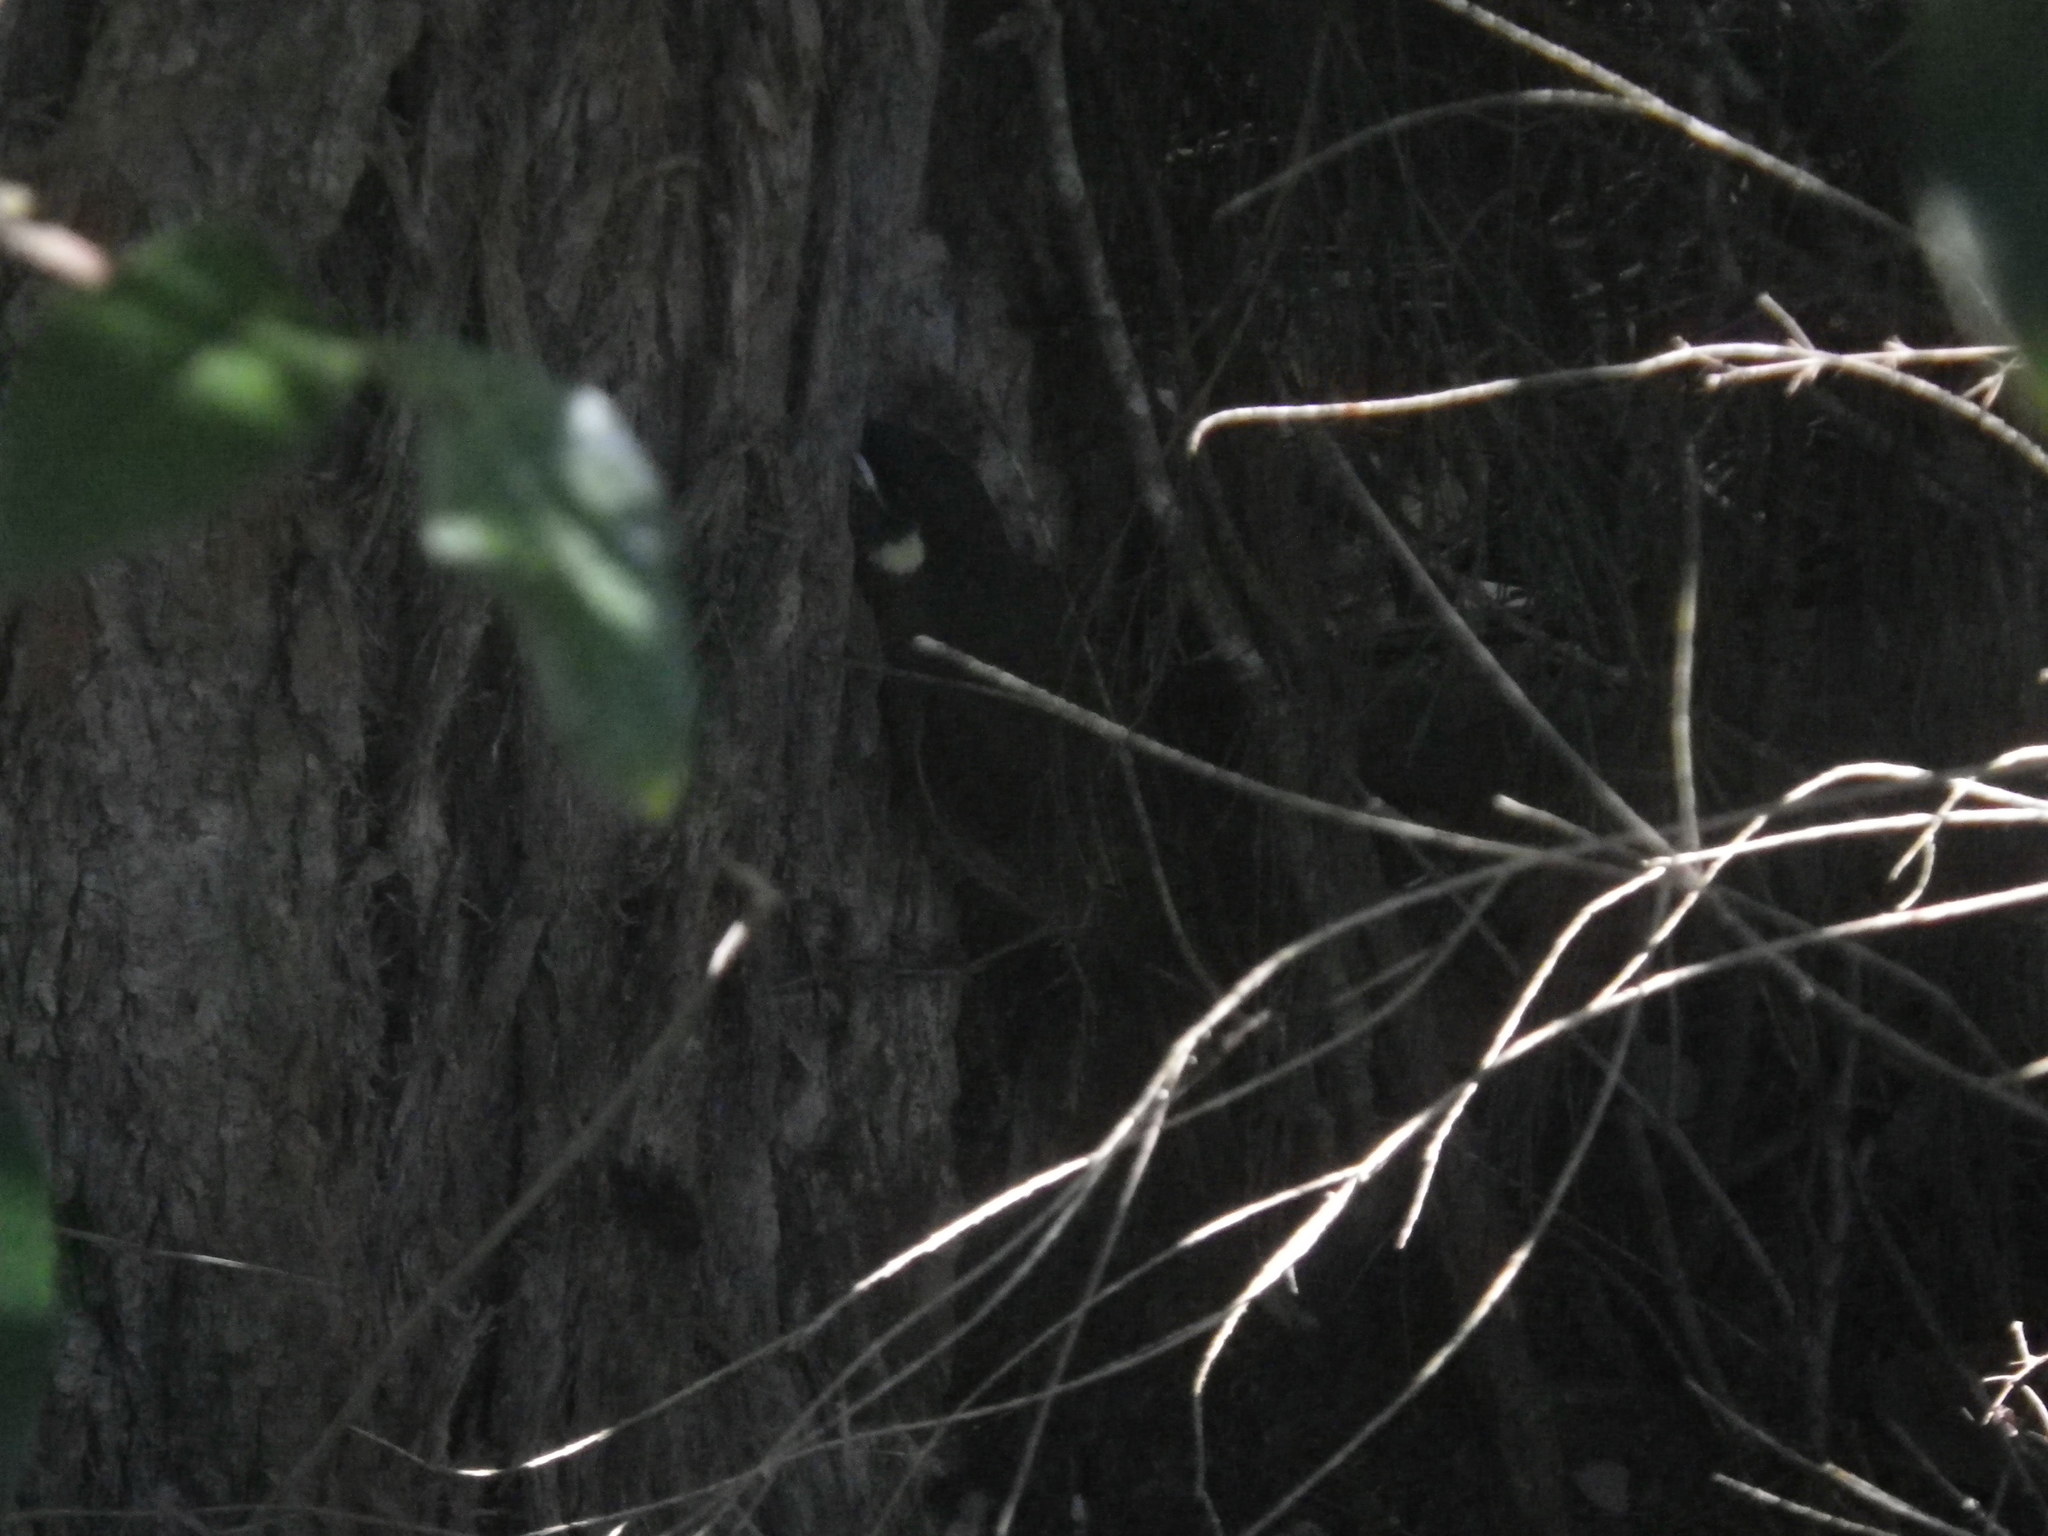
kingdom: Animalia
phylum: Chordata
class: Aves
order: Passeriformes
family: Meliphagidae
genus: Meliphaga
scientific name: Meliphaga lewinii
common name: Lewin's honeyeater
